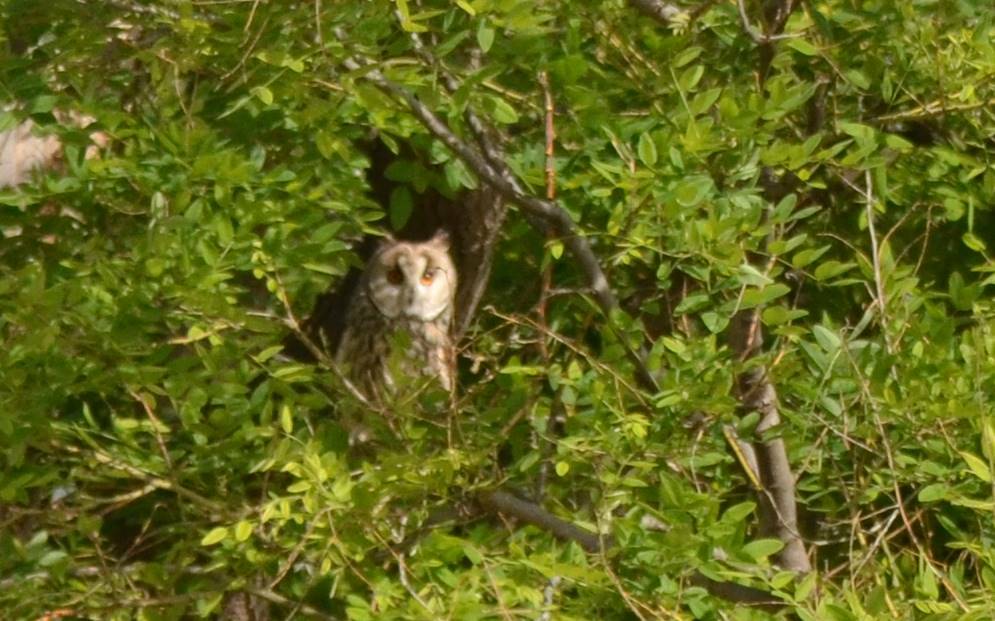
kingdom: Animalia
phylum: Chordata
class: Aves
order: Strigiformes
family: Strigidae
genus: Asio
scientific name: Asio otus
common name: Long-eared owl
